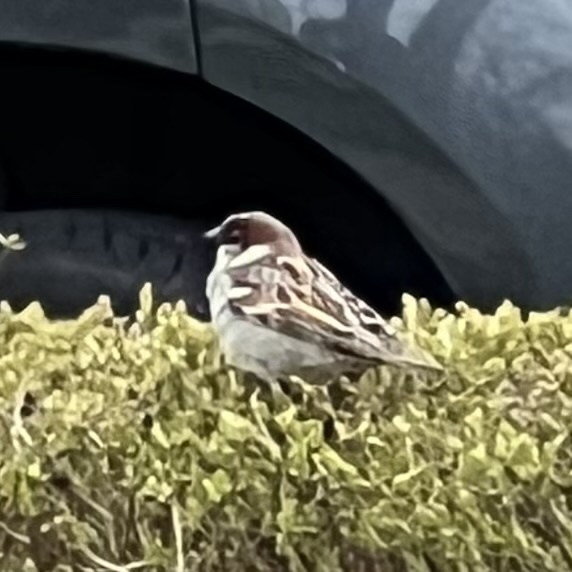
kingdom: Animalia
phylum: Chordata
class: Aves
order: Passeriformes
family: Passeridae
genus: Passer
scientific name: Passer domesticus
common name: House sparrow
